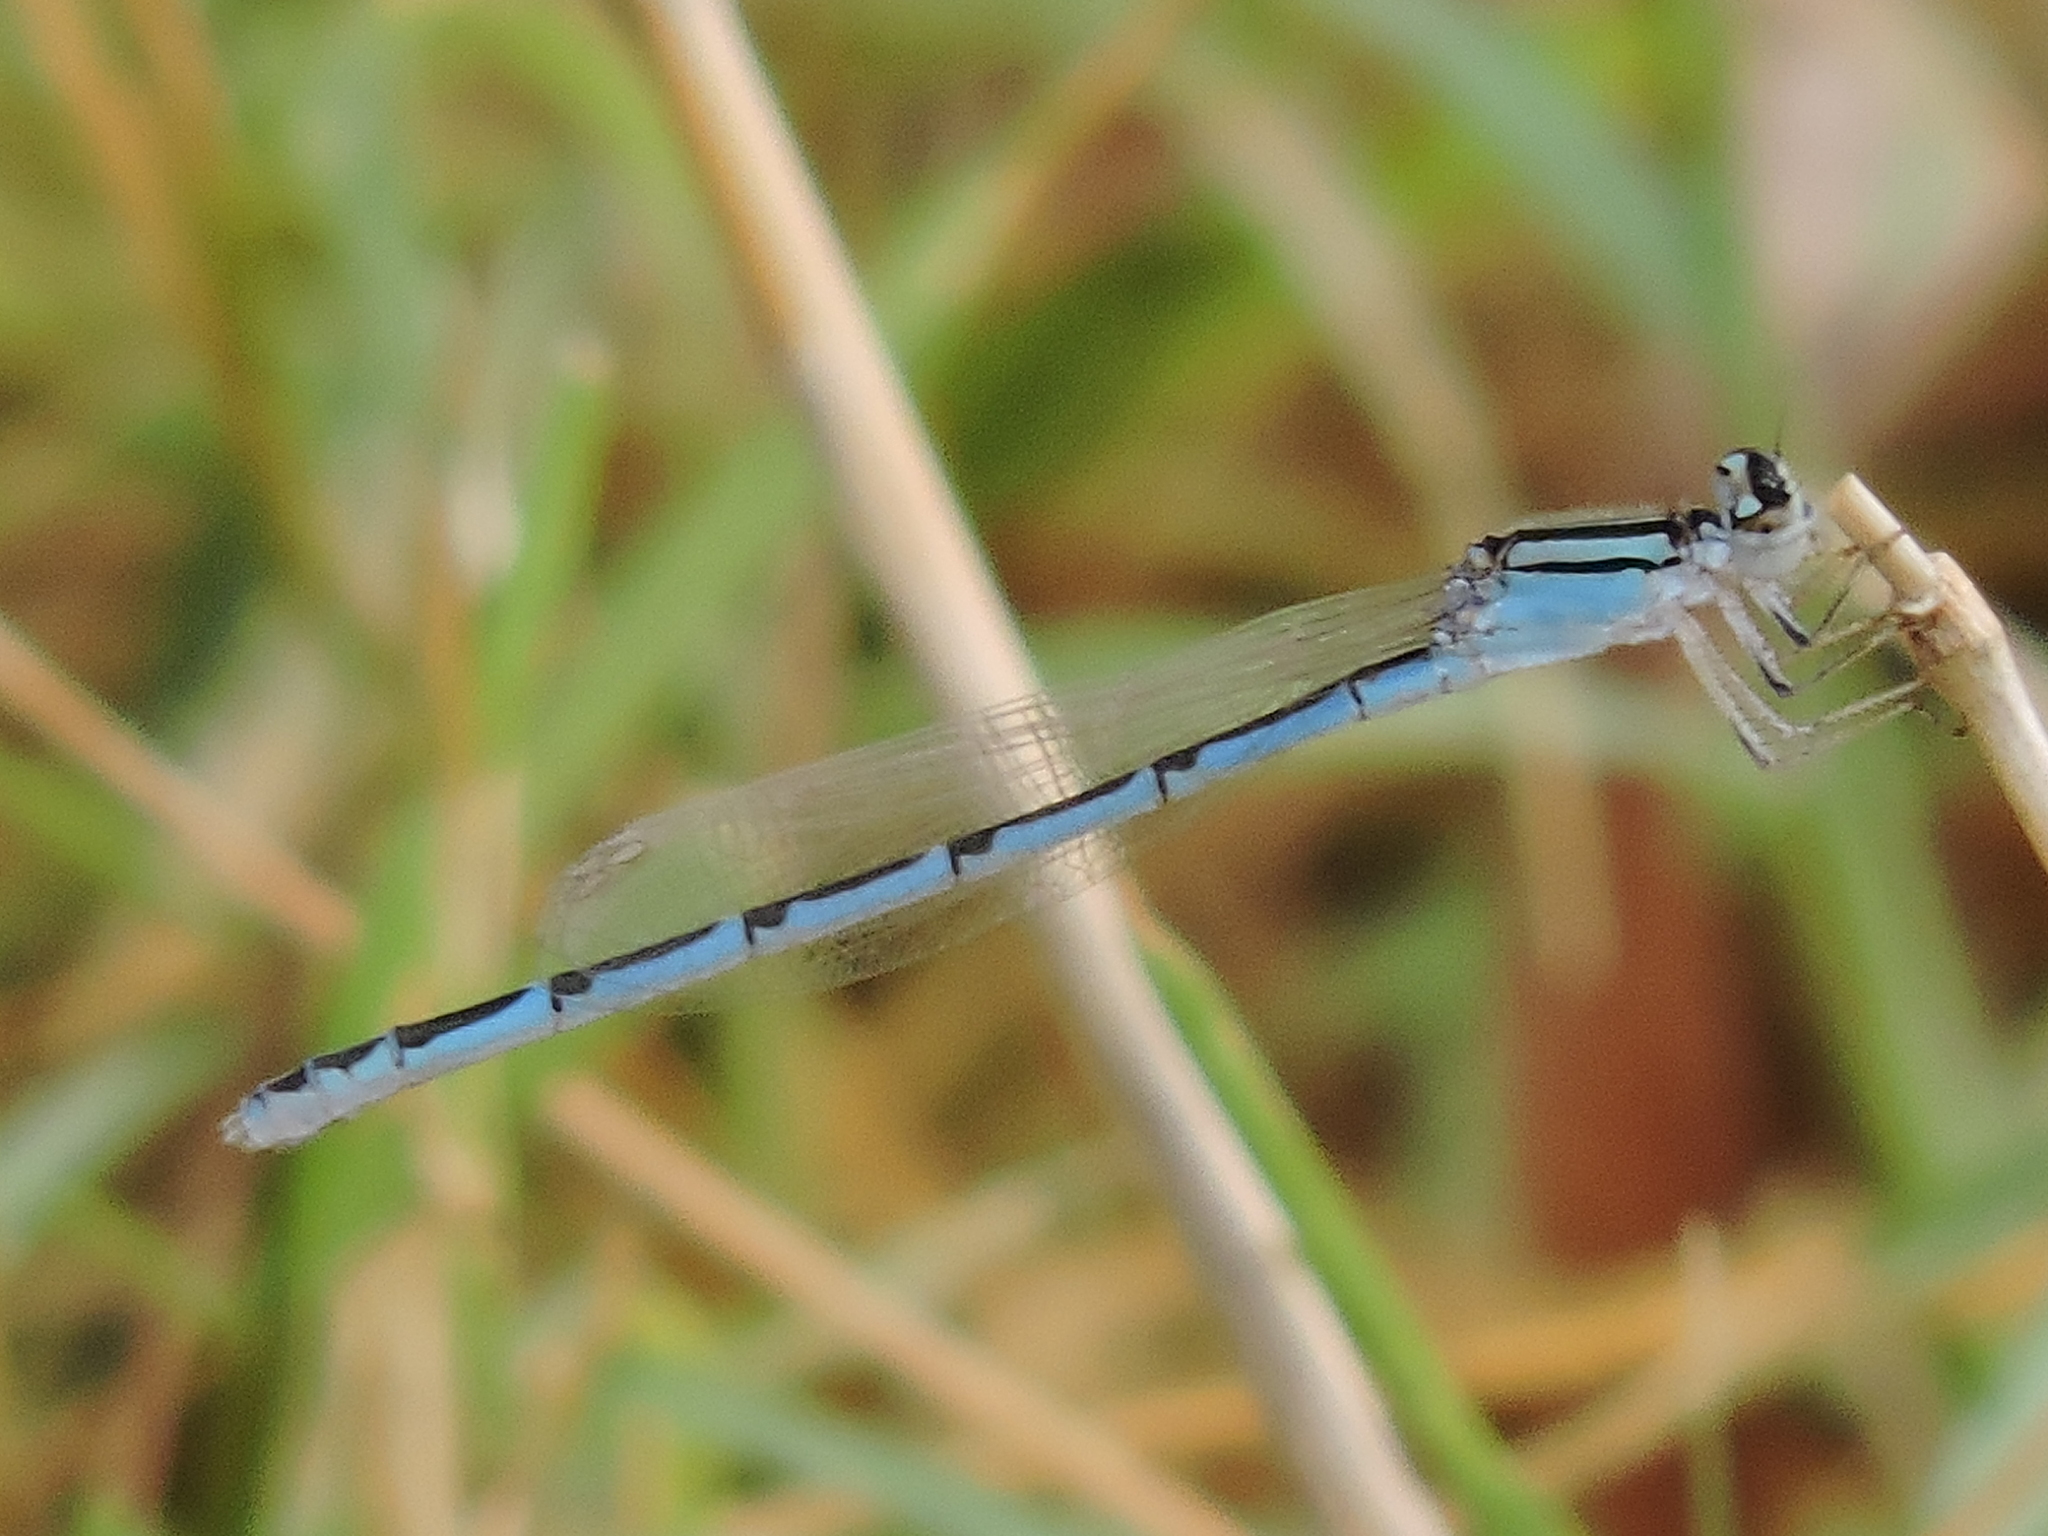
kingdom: Animalia
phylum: Arthropoda
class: Insecta
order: Odonata
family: Coenagrionidae
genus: Enallagma
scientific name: Enallagma civile
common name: Damselfly
